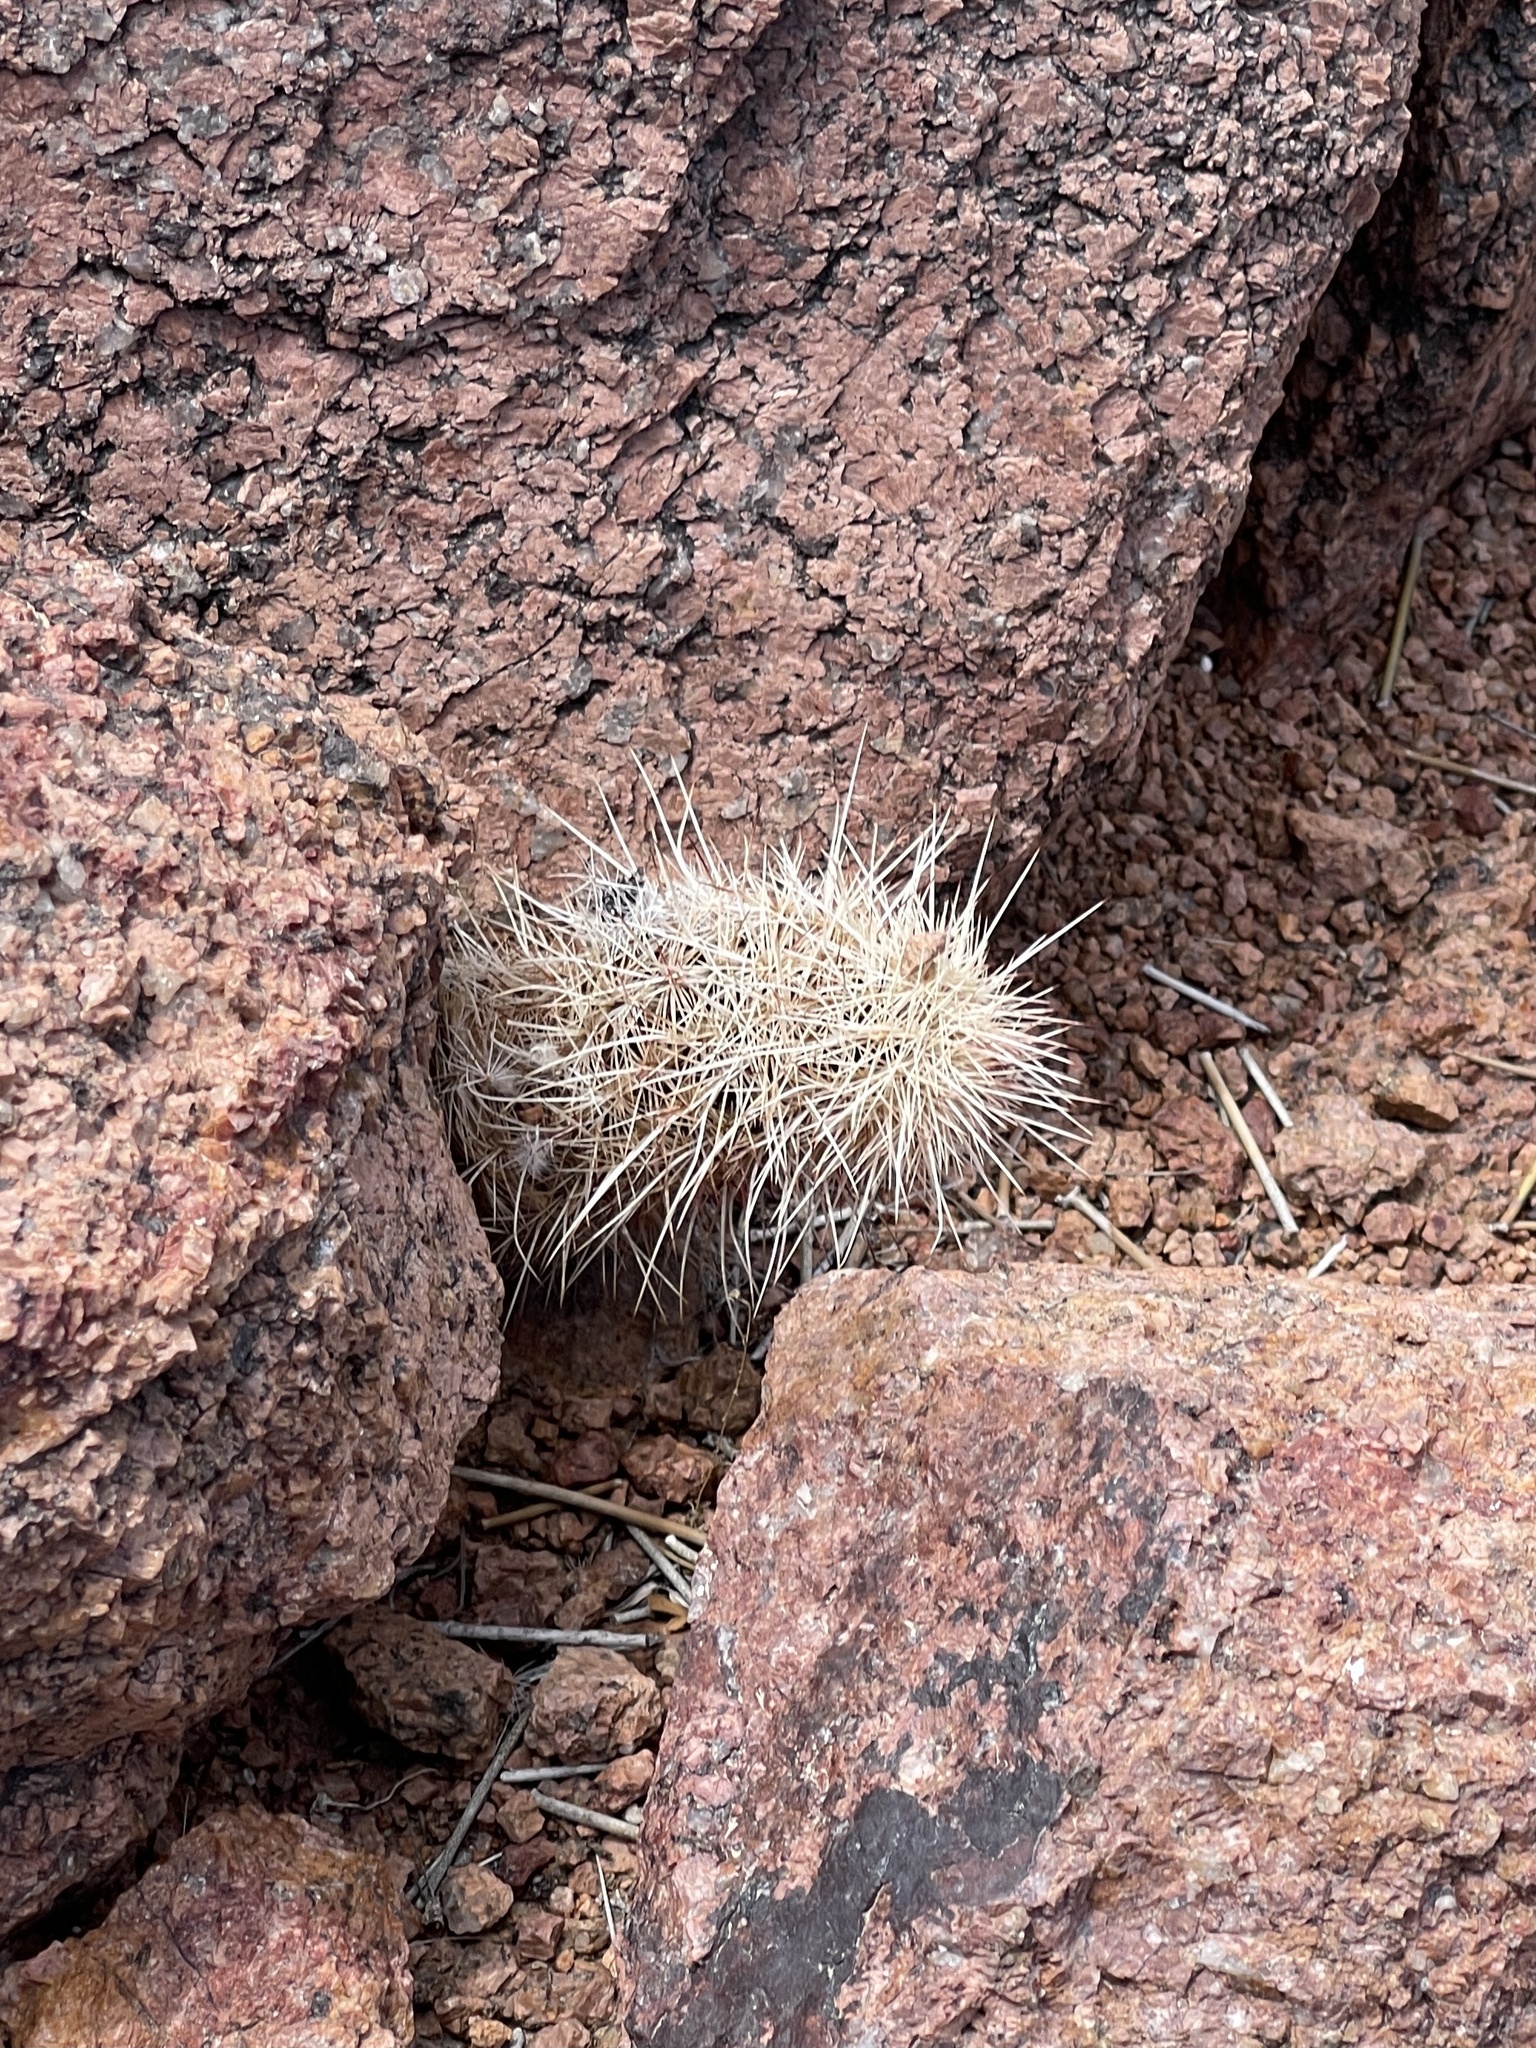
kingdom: Plantae
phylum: Tracheophyta
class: Magnoliopsida
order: Caryophyllales
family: Cactaceae
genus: Echinocereus
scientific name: Echinocereus viridiflorus
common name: Nylon hedgehog cactus
